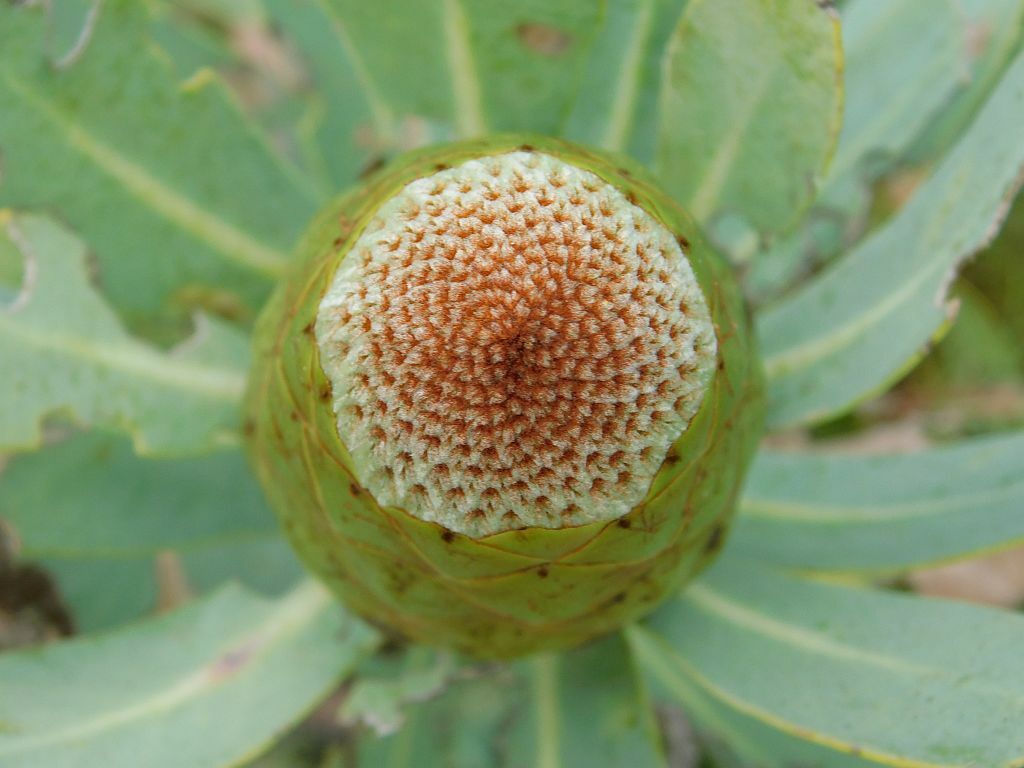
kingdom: Plantae
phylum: Tracheophyta
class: Magnoliopsida
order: Proteales
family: Proteaceae
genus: Protea
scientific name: Protea nitida
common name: Tree protea
